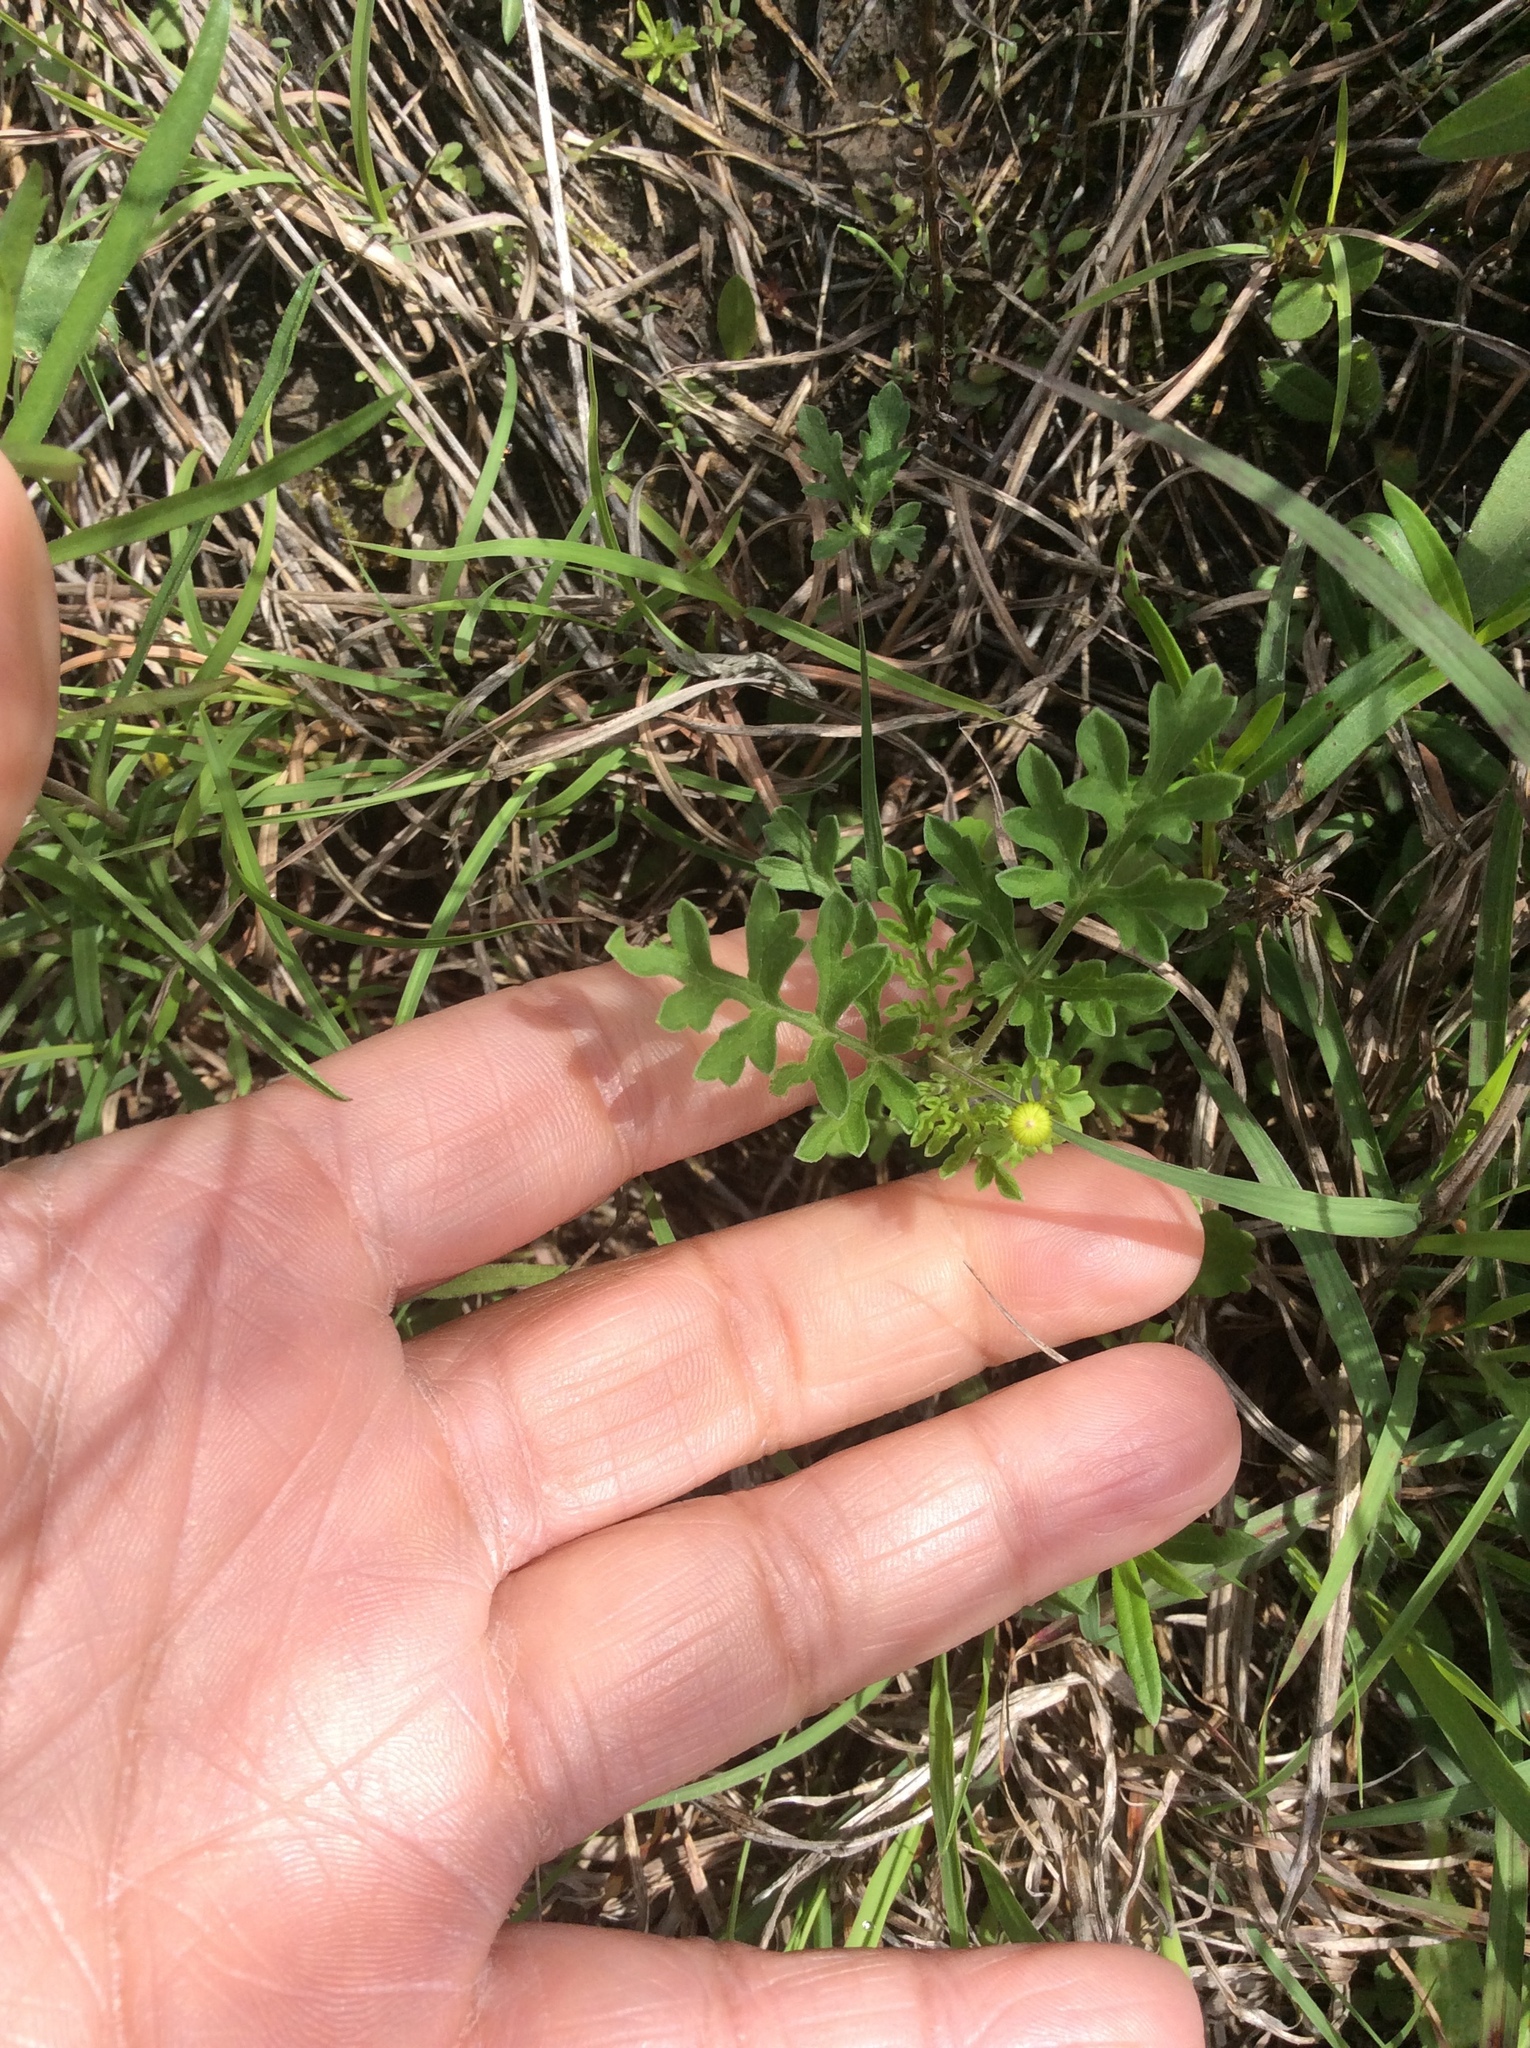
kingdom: Plantae
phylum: Tracheophyta
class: Magnoliopsida
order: Asterales
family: Asteraceae
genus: Packera
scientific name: Packera tampicana
